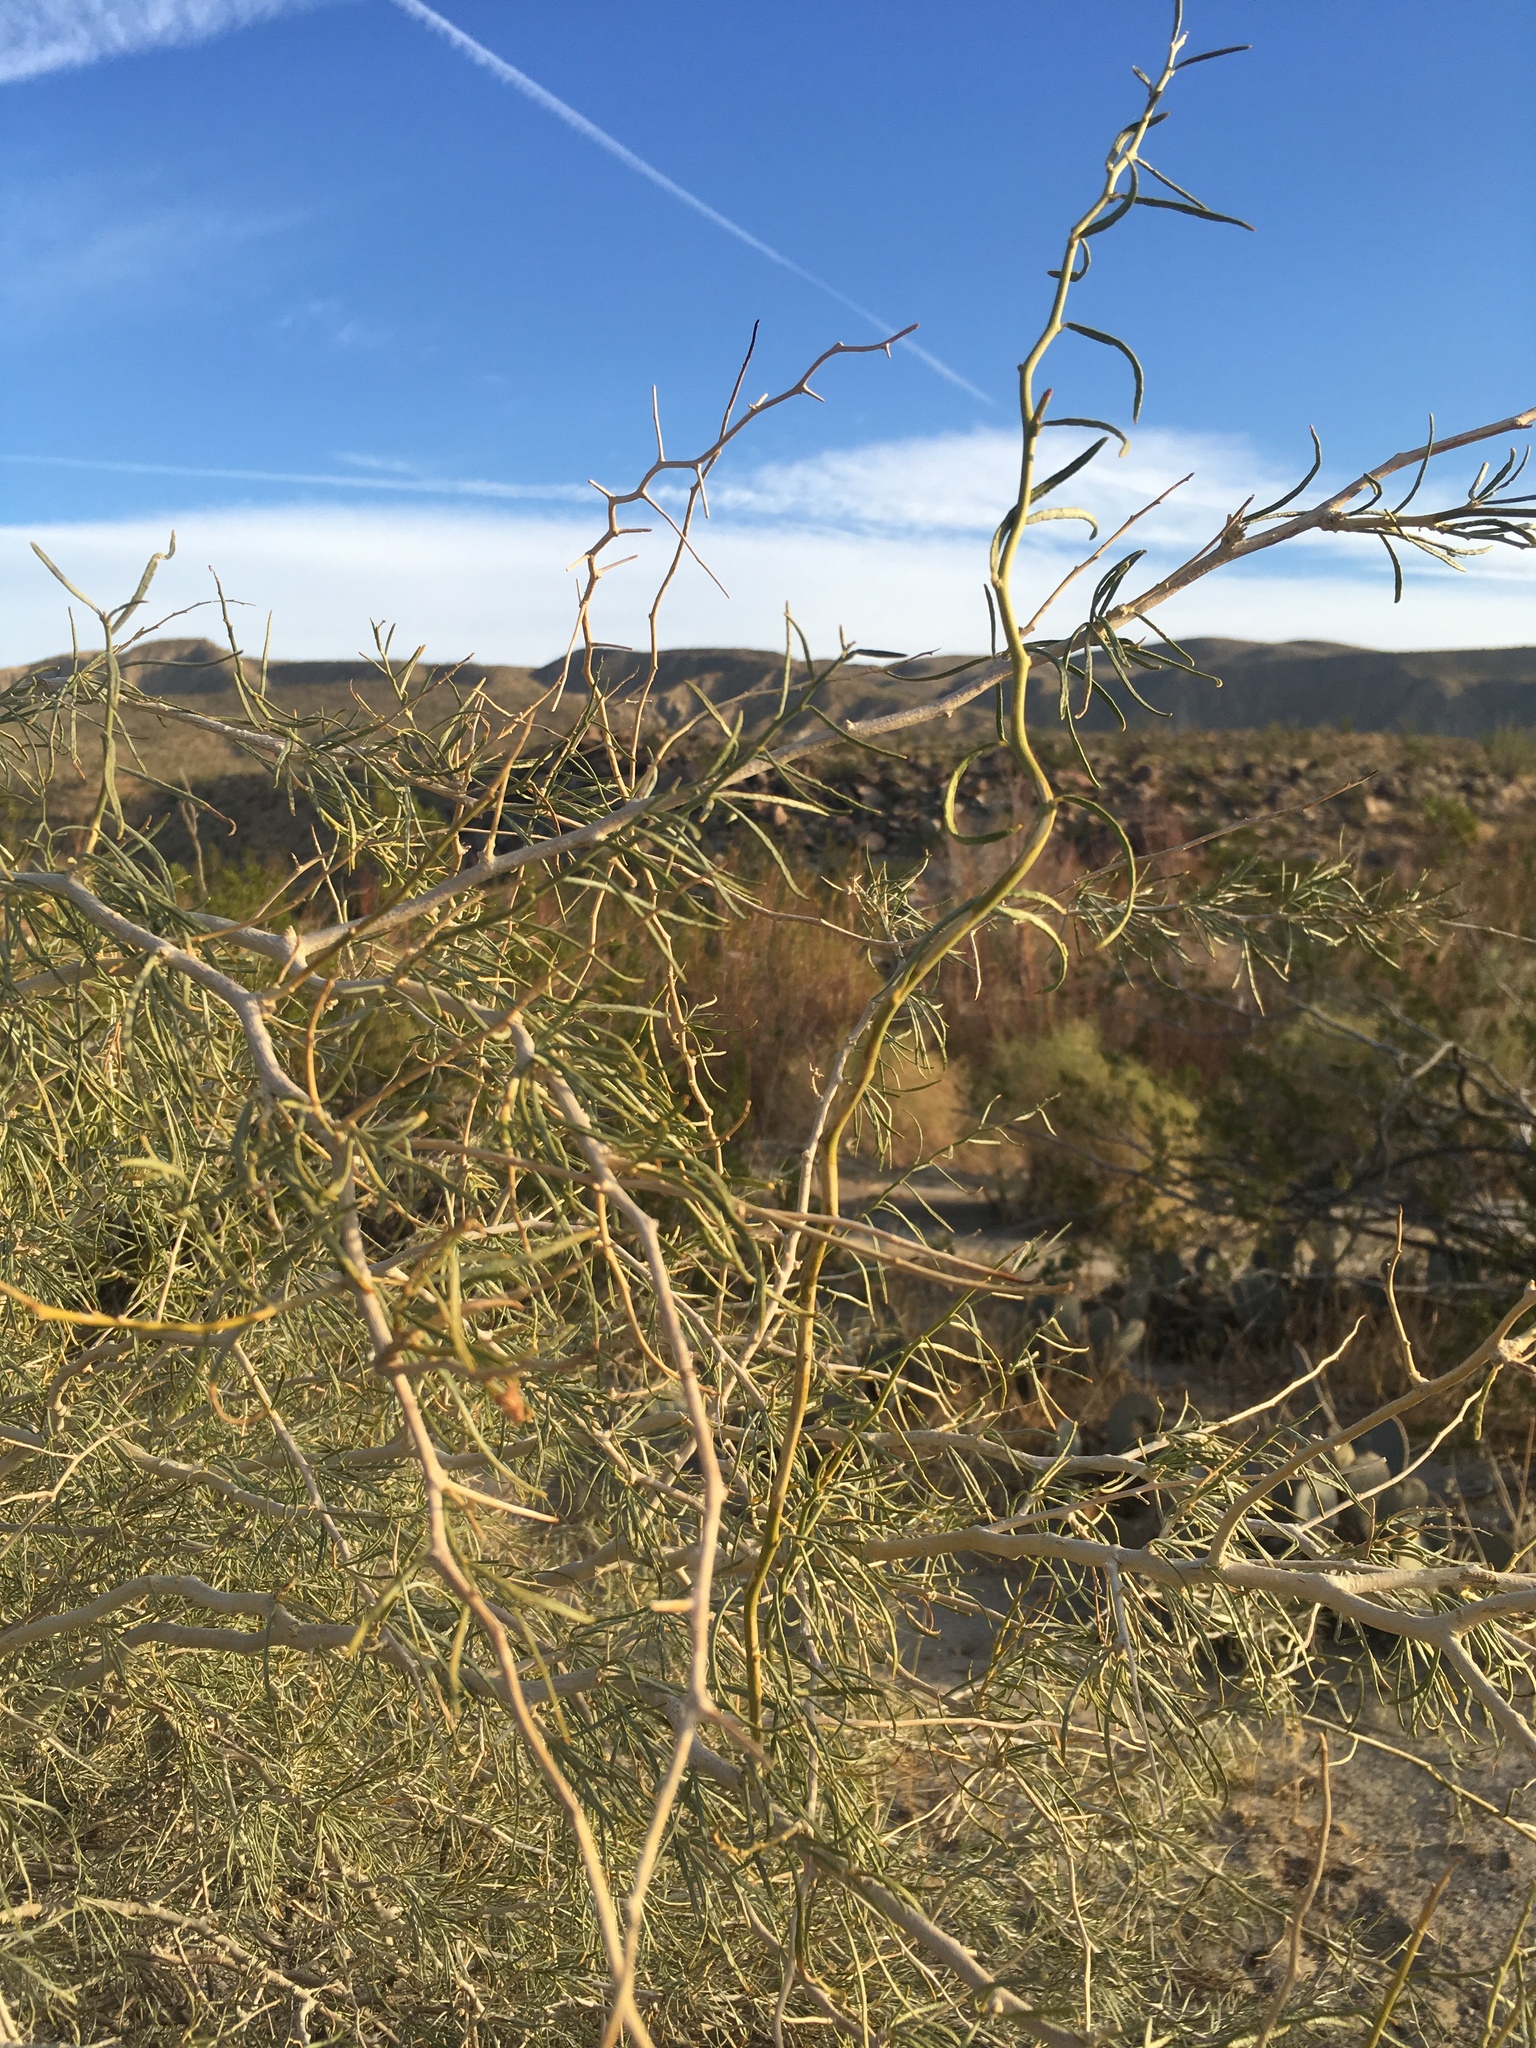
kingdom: Plantae
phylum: Tracheophyta
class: Magnoliopsida
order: Fabales
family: Fabaceae
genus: Psorothamnus
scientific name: Psorothamnus schottii
